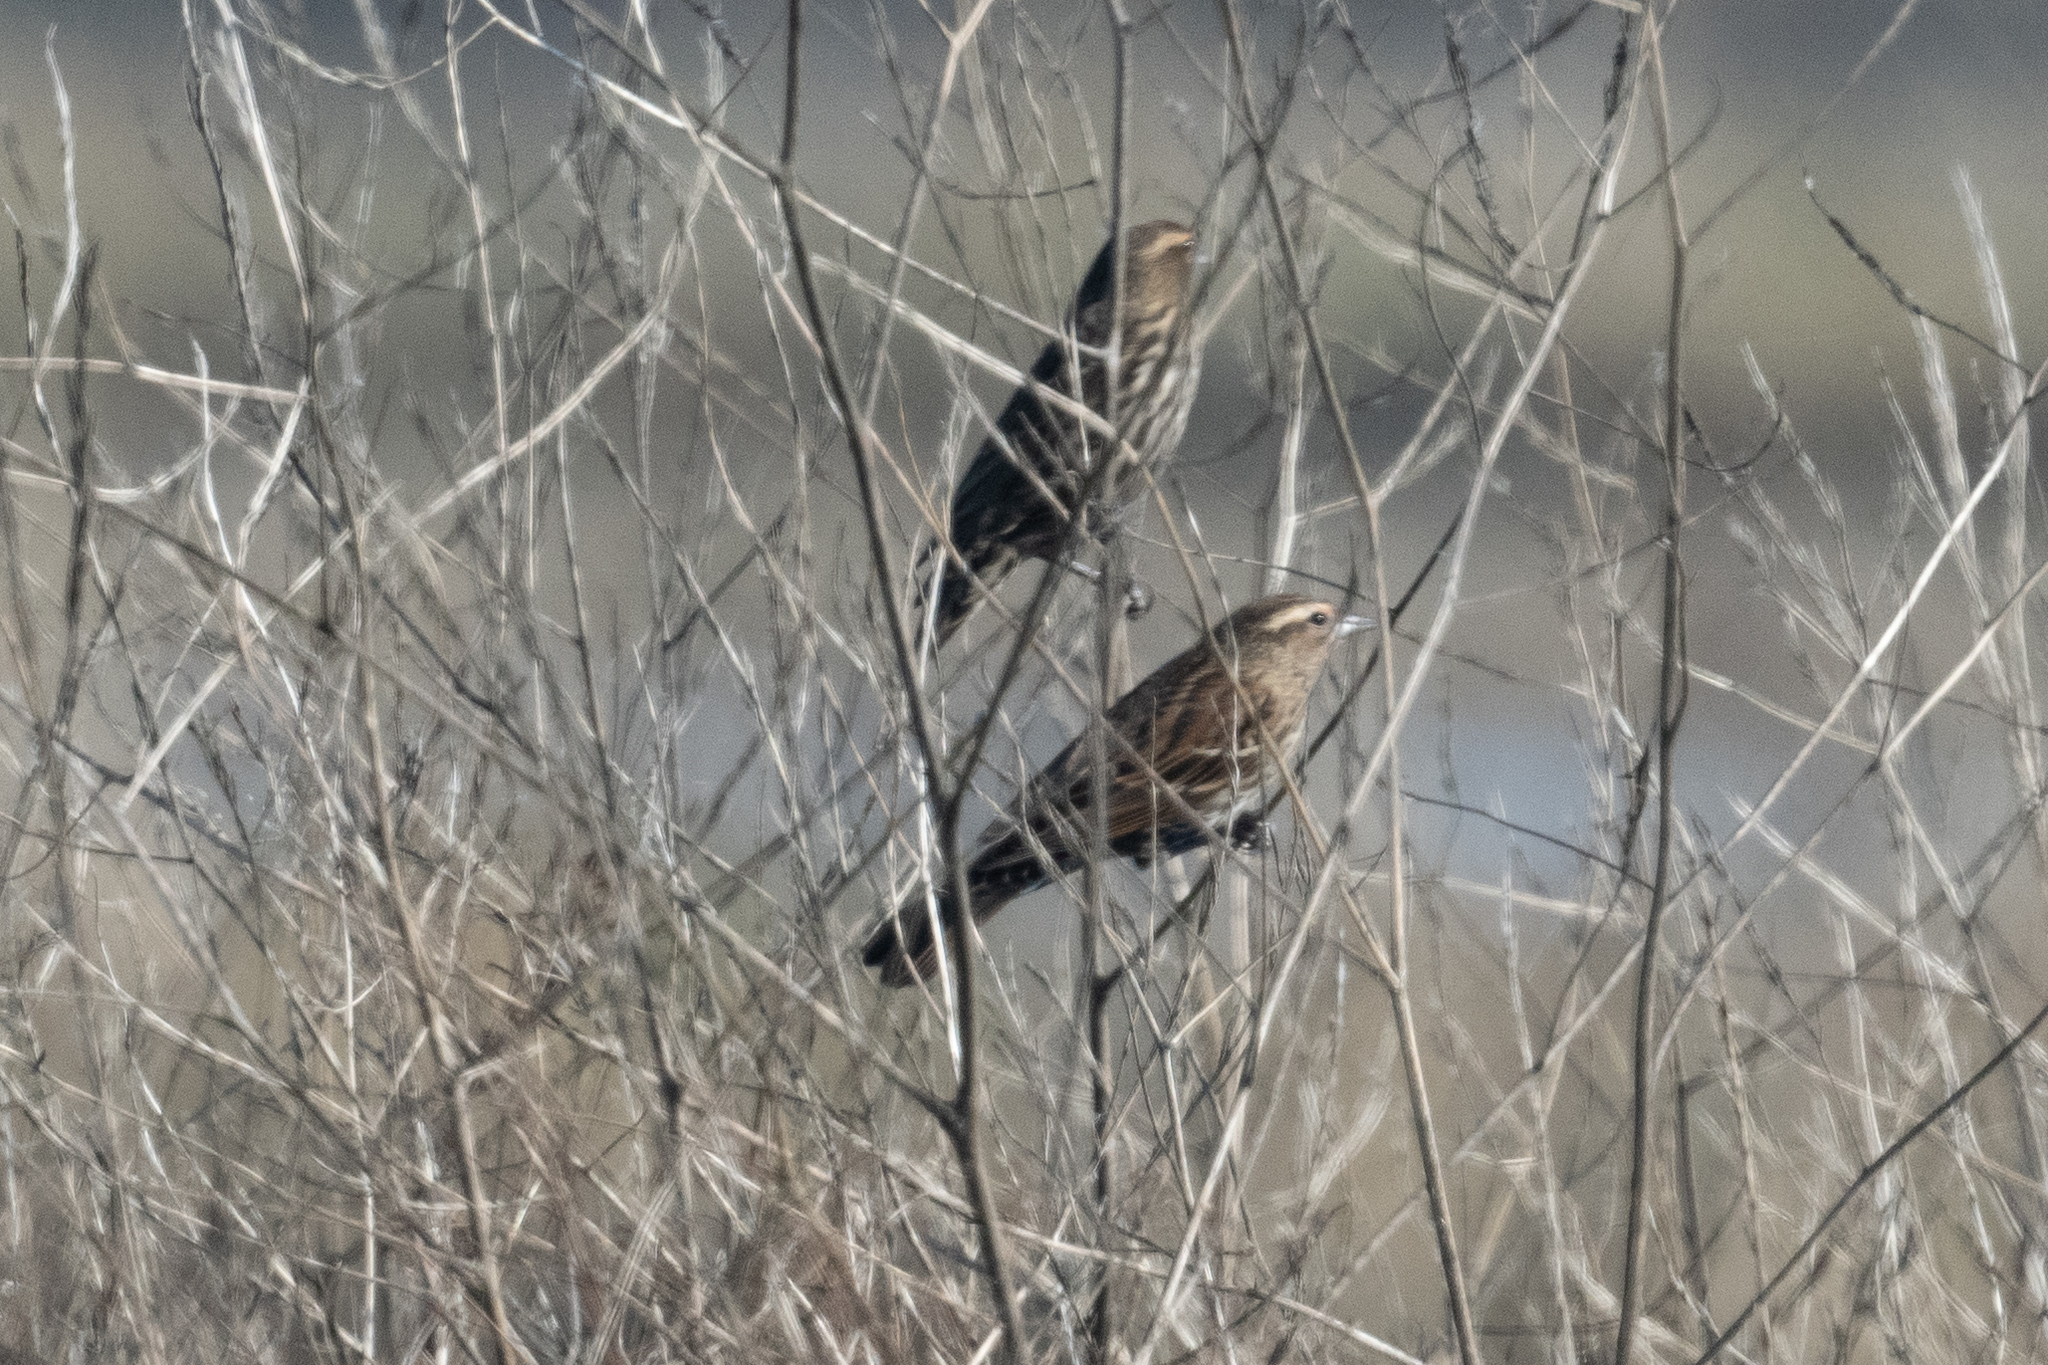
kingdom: Animalia
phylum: Chordata
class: Aves
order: Passeriformes
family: Icteridae
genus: Agelaius
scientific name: Agelaius phoeniceus
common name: Red-winged blackbird
